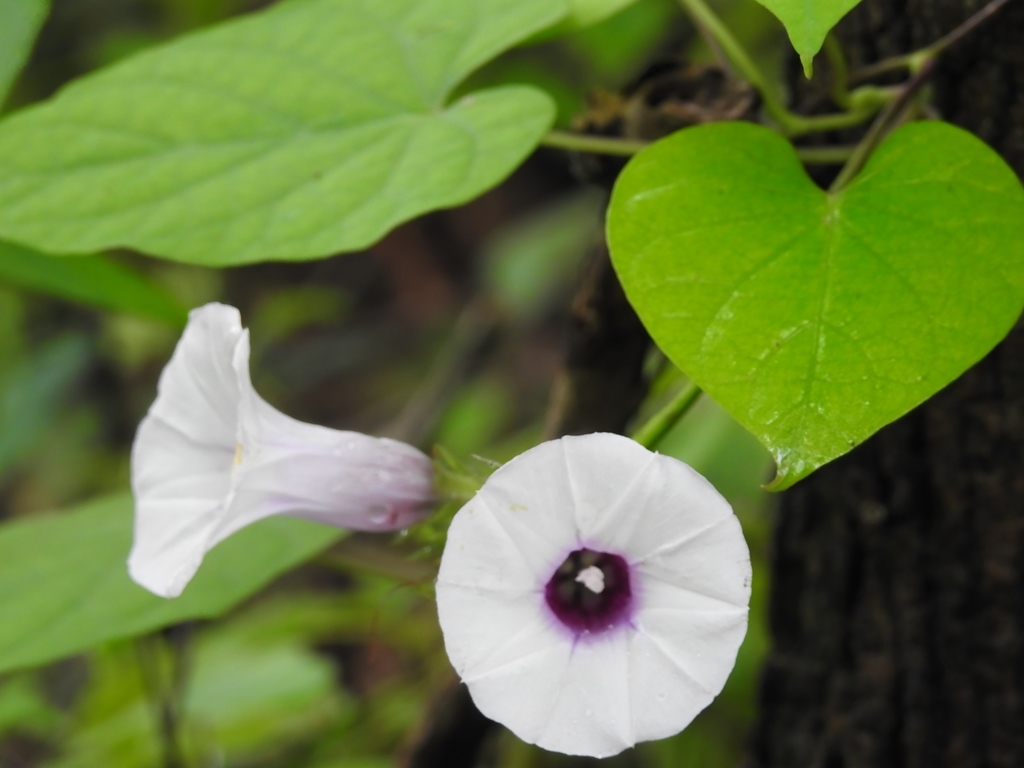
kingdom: Plantae
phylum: Tracheophyta
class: Magnoliopsida
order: Solanales
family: Convolvulaceae
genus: Ipomoea
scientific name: Ipomoea batatas
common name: Sweet-potato
